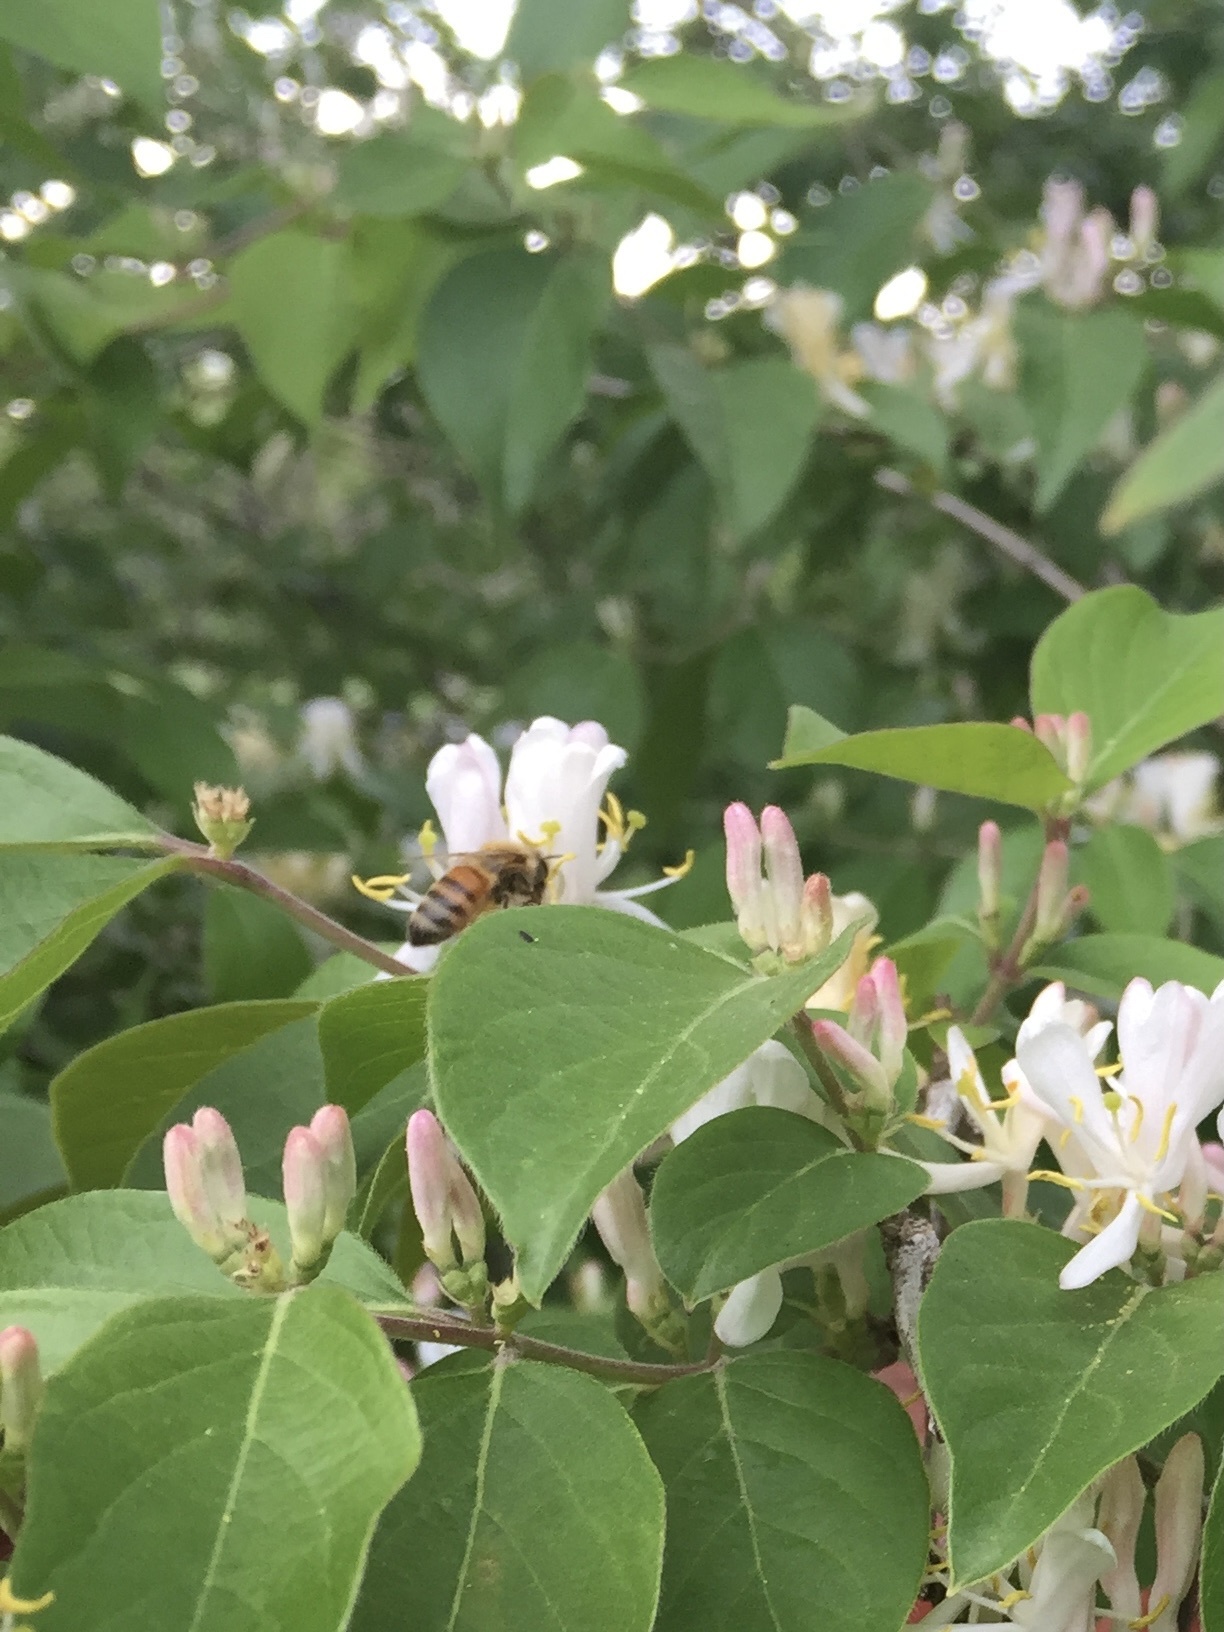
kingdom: Animalia
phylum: Arthropoda
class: Insecta
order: Hymenoptera
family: Apidae
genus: Apis
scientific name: Apis mellifera
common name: Honey bee
